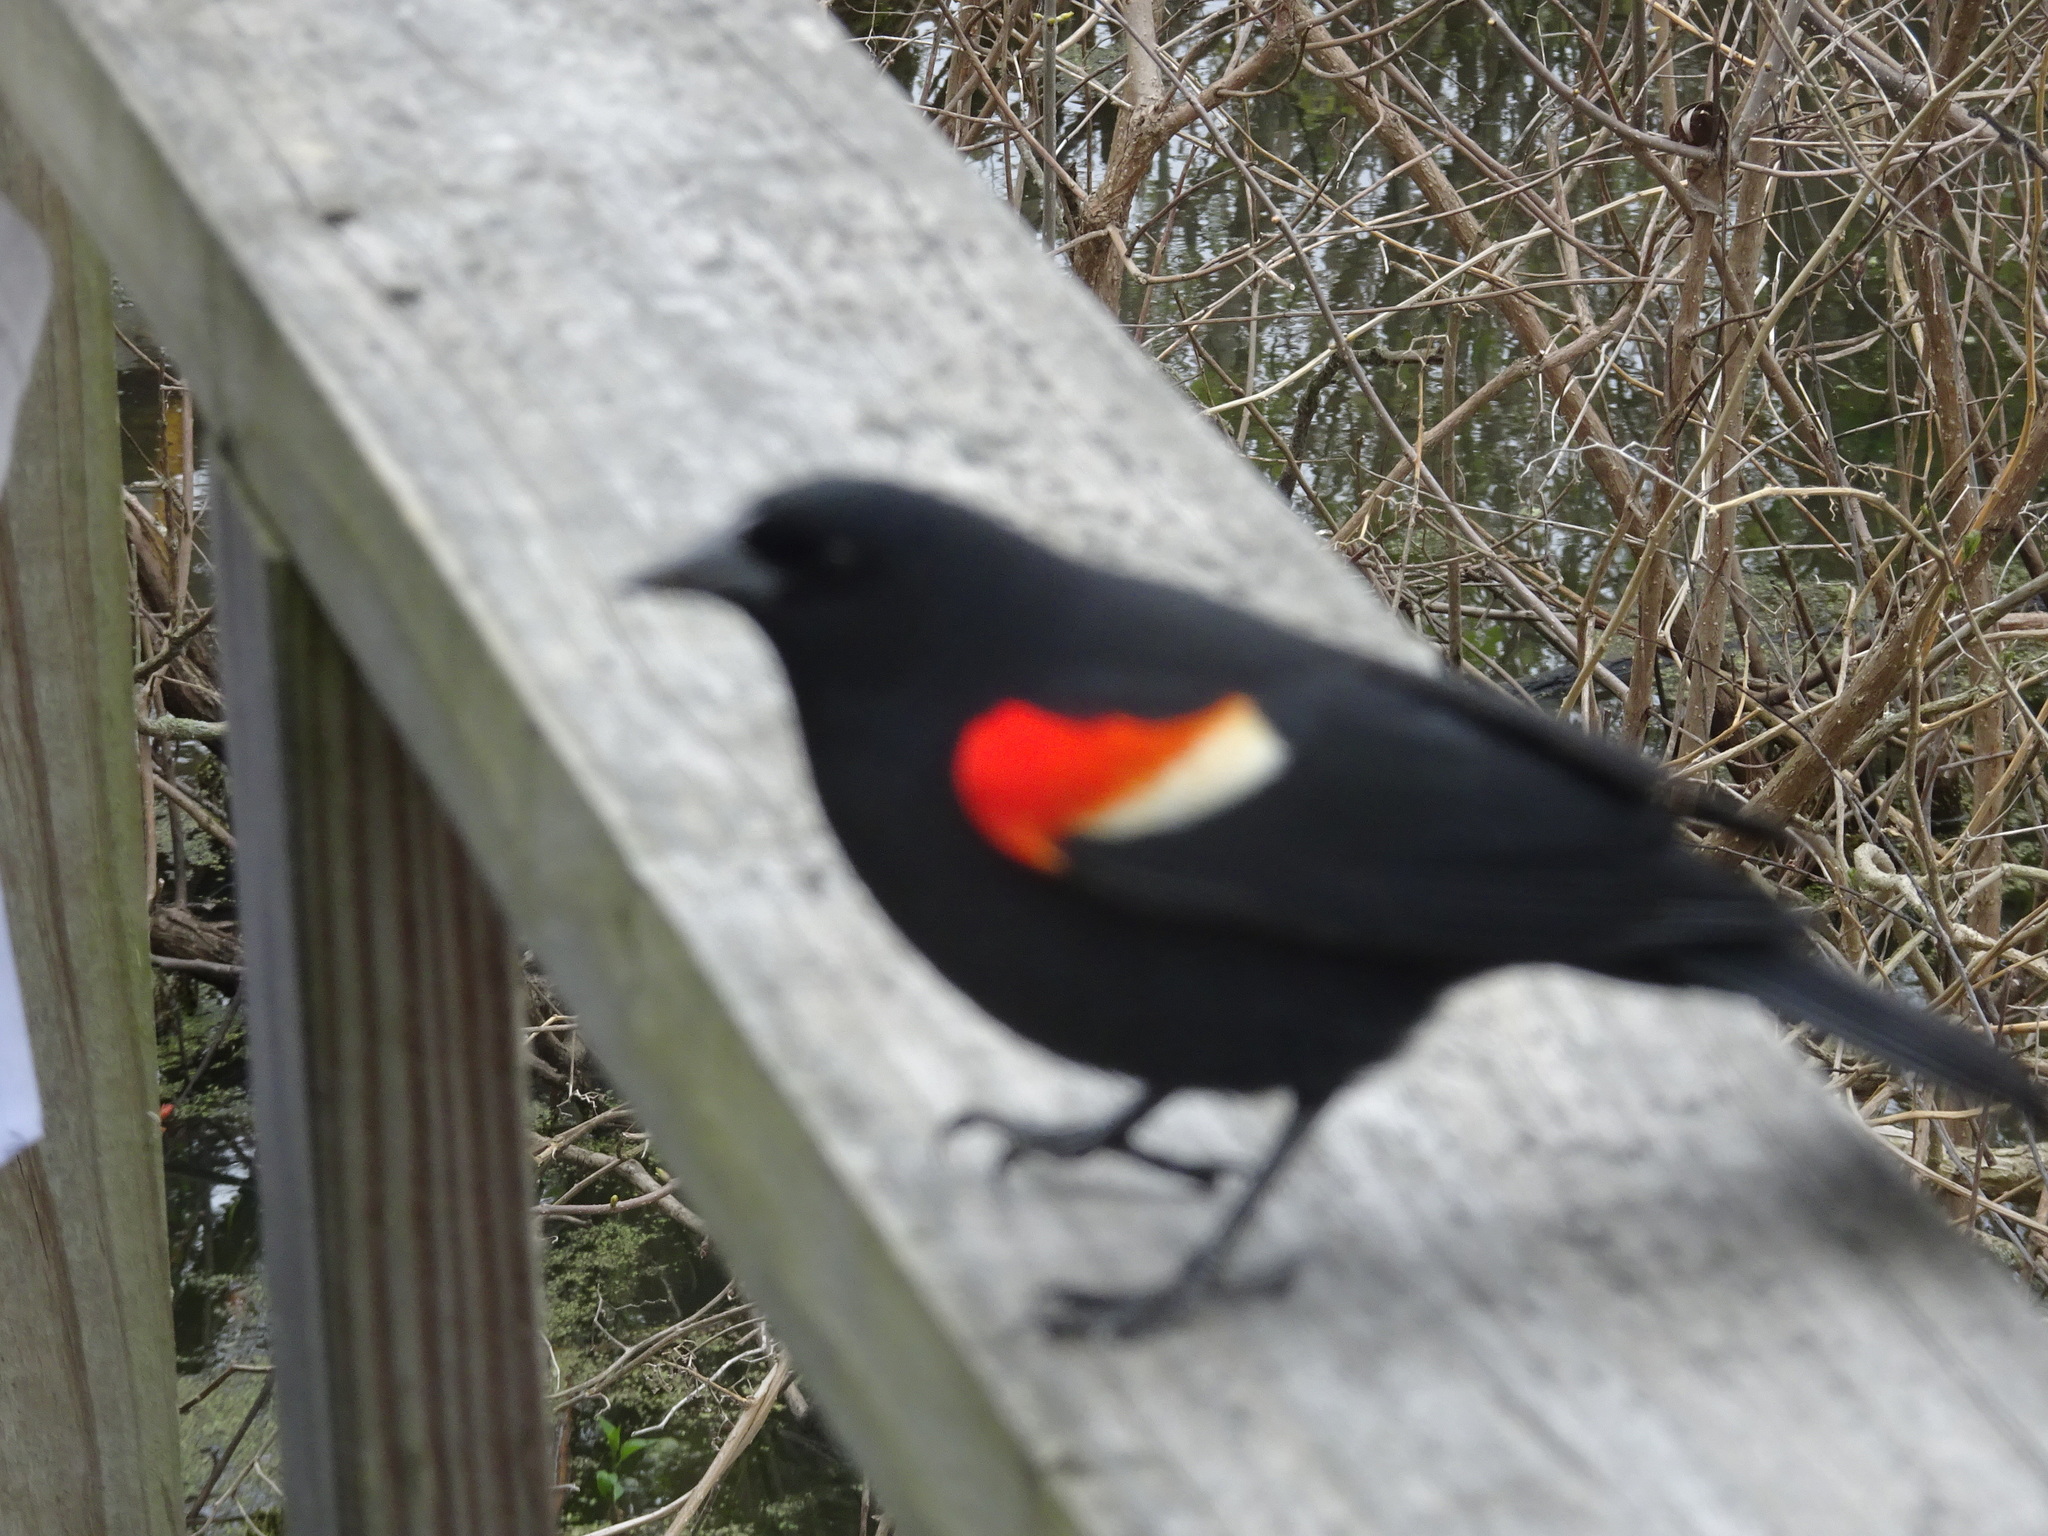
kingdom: Animalia
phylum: Chordata
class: Aves
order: Passeriformes
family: Icteridae
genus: Agelaius
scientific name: Agelaius phoeniceus
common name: Red-winged blackbird
